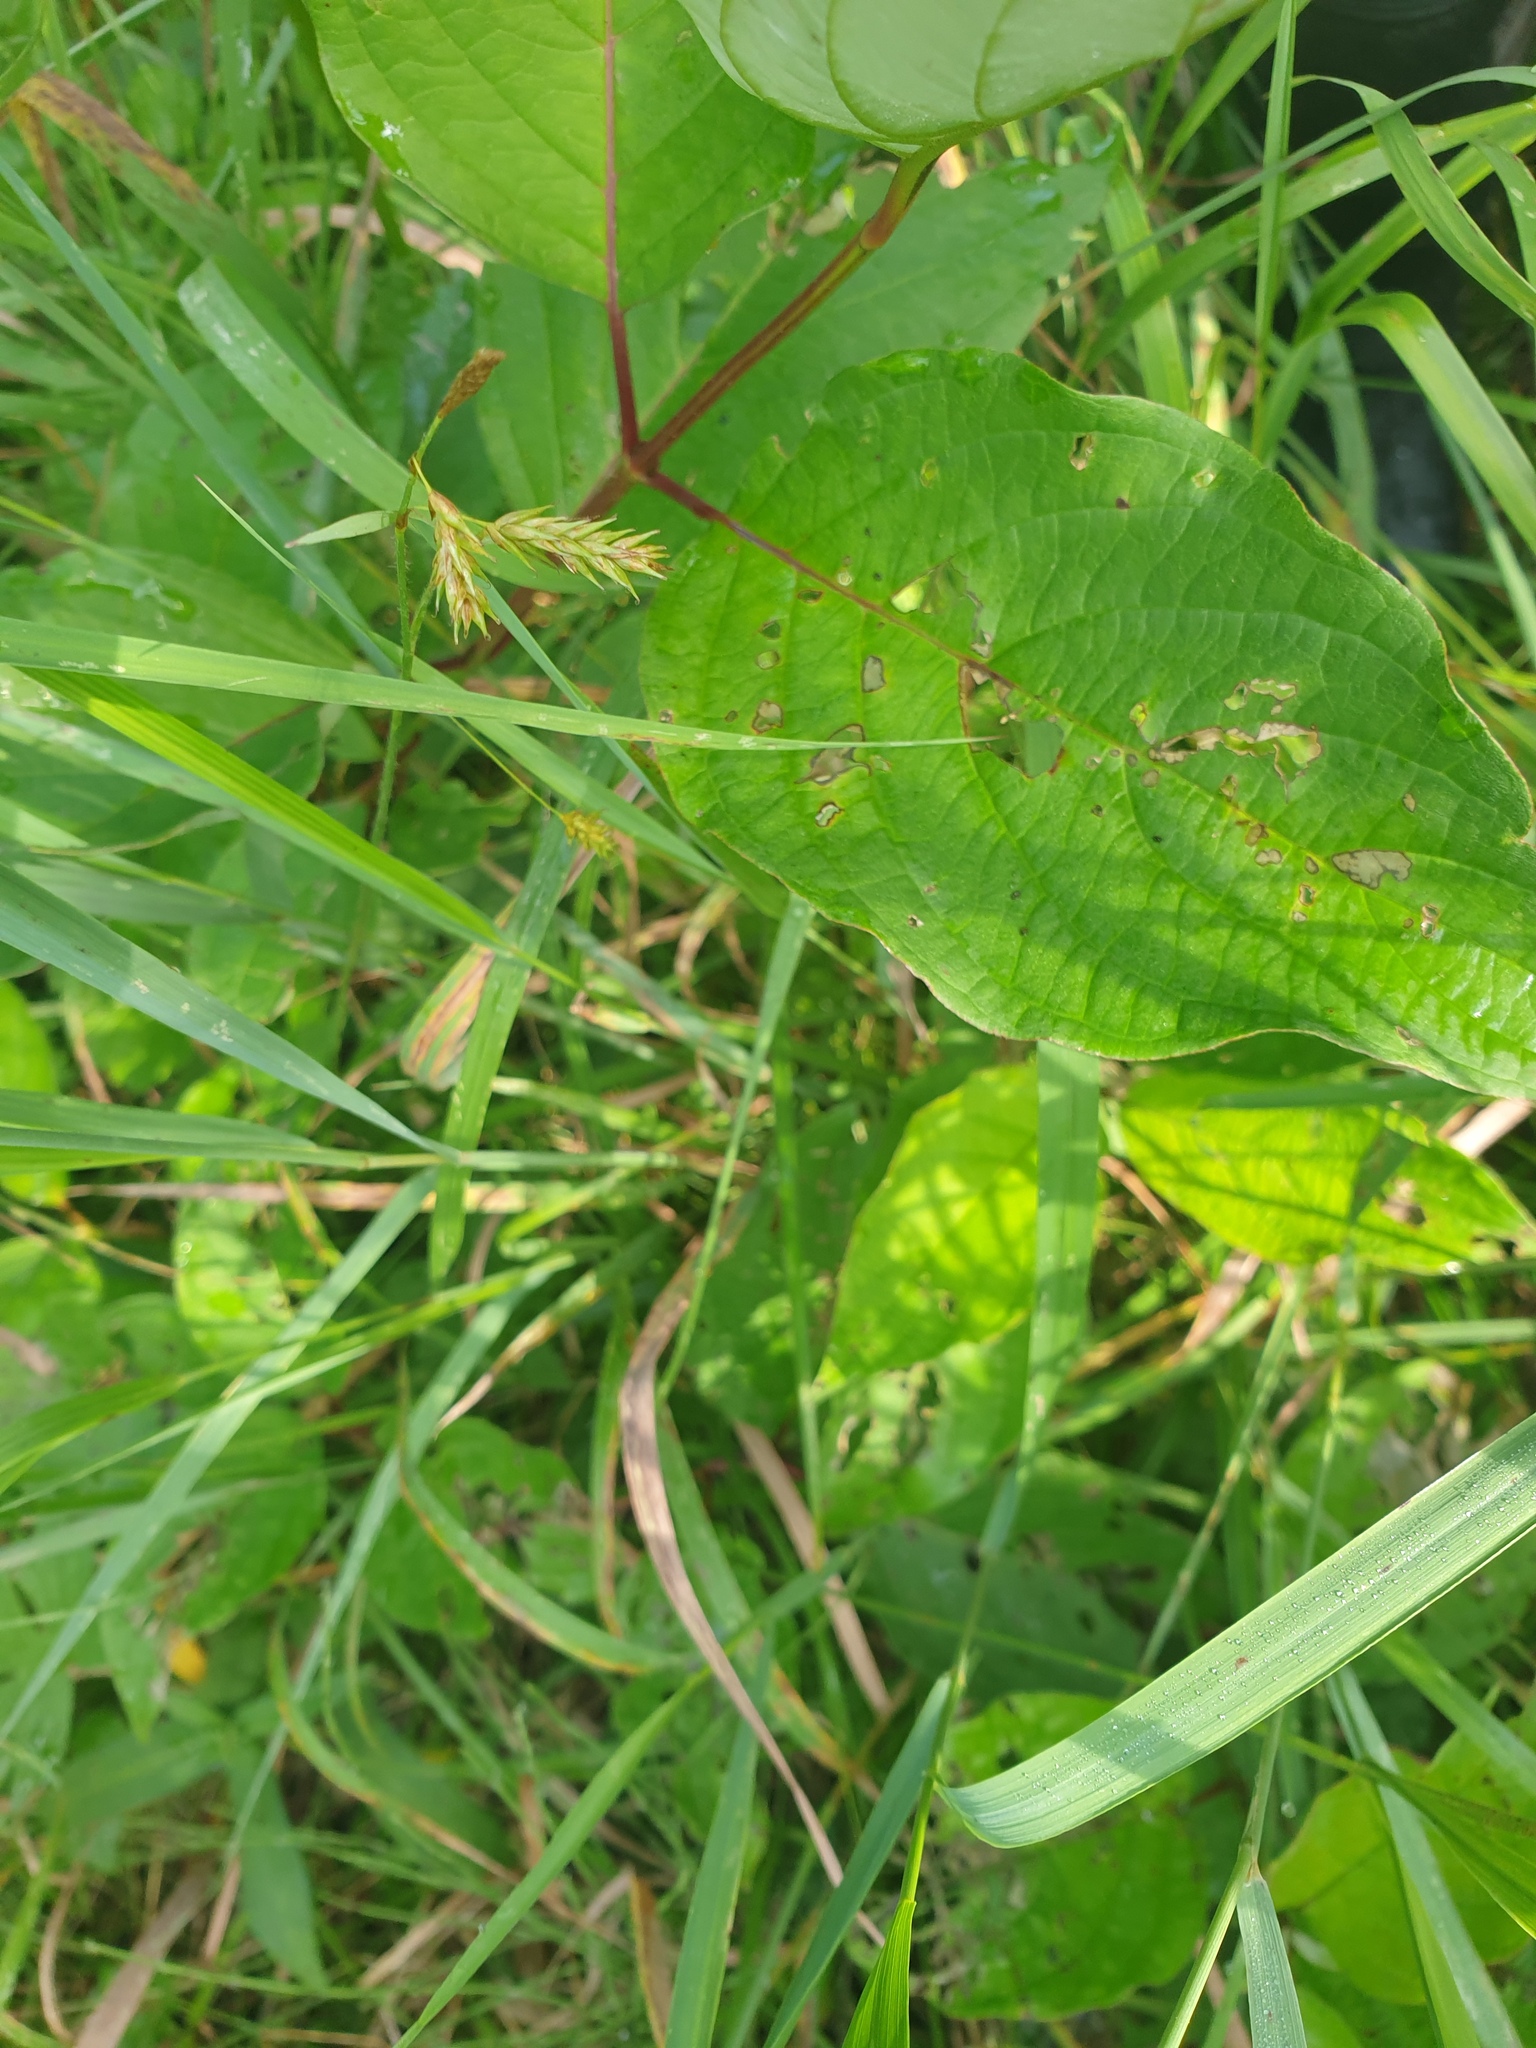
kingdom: Plantae
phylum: Tracheophyta
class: Liliopsida
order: Poales
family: Cyperaceae
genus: Carex
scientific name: Carex castanea
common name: Chestnut sedge
